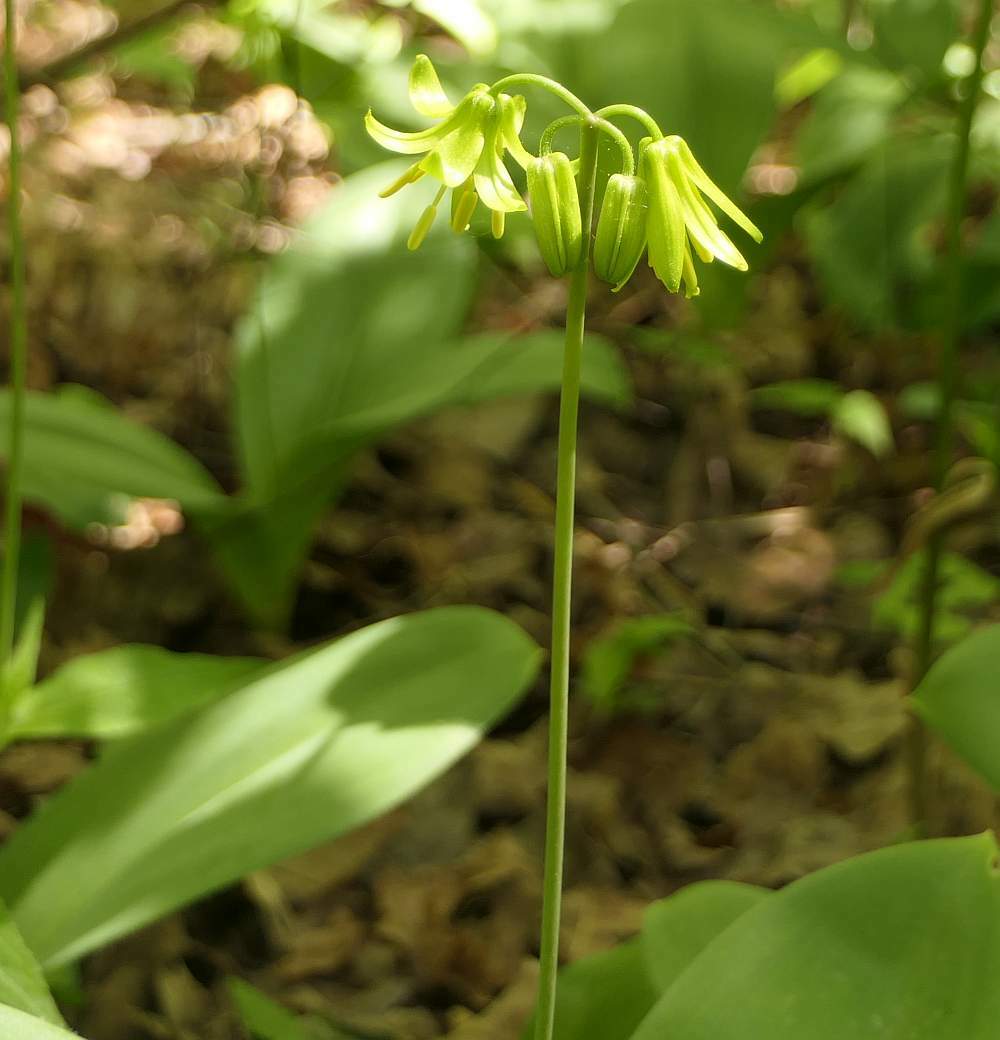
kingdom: Plantae
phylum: Tracheophyta
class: Liliopsida
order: Liliales
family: Liliaceae
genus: Clintonia
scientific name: Clintonia borealis
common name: Yellow clintonia
